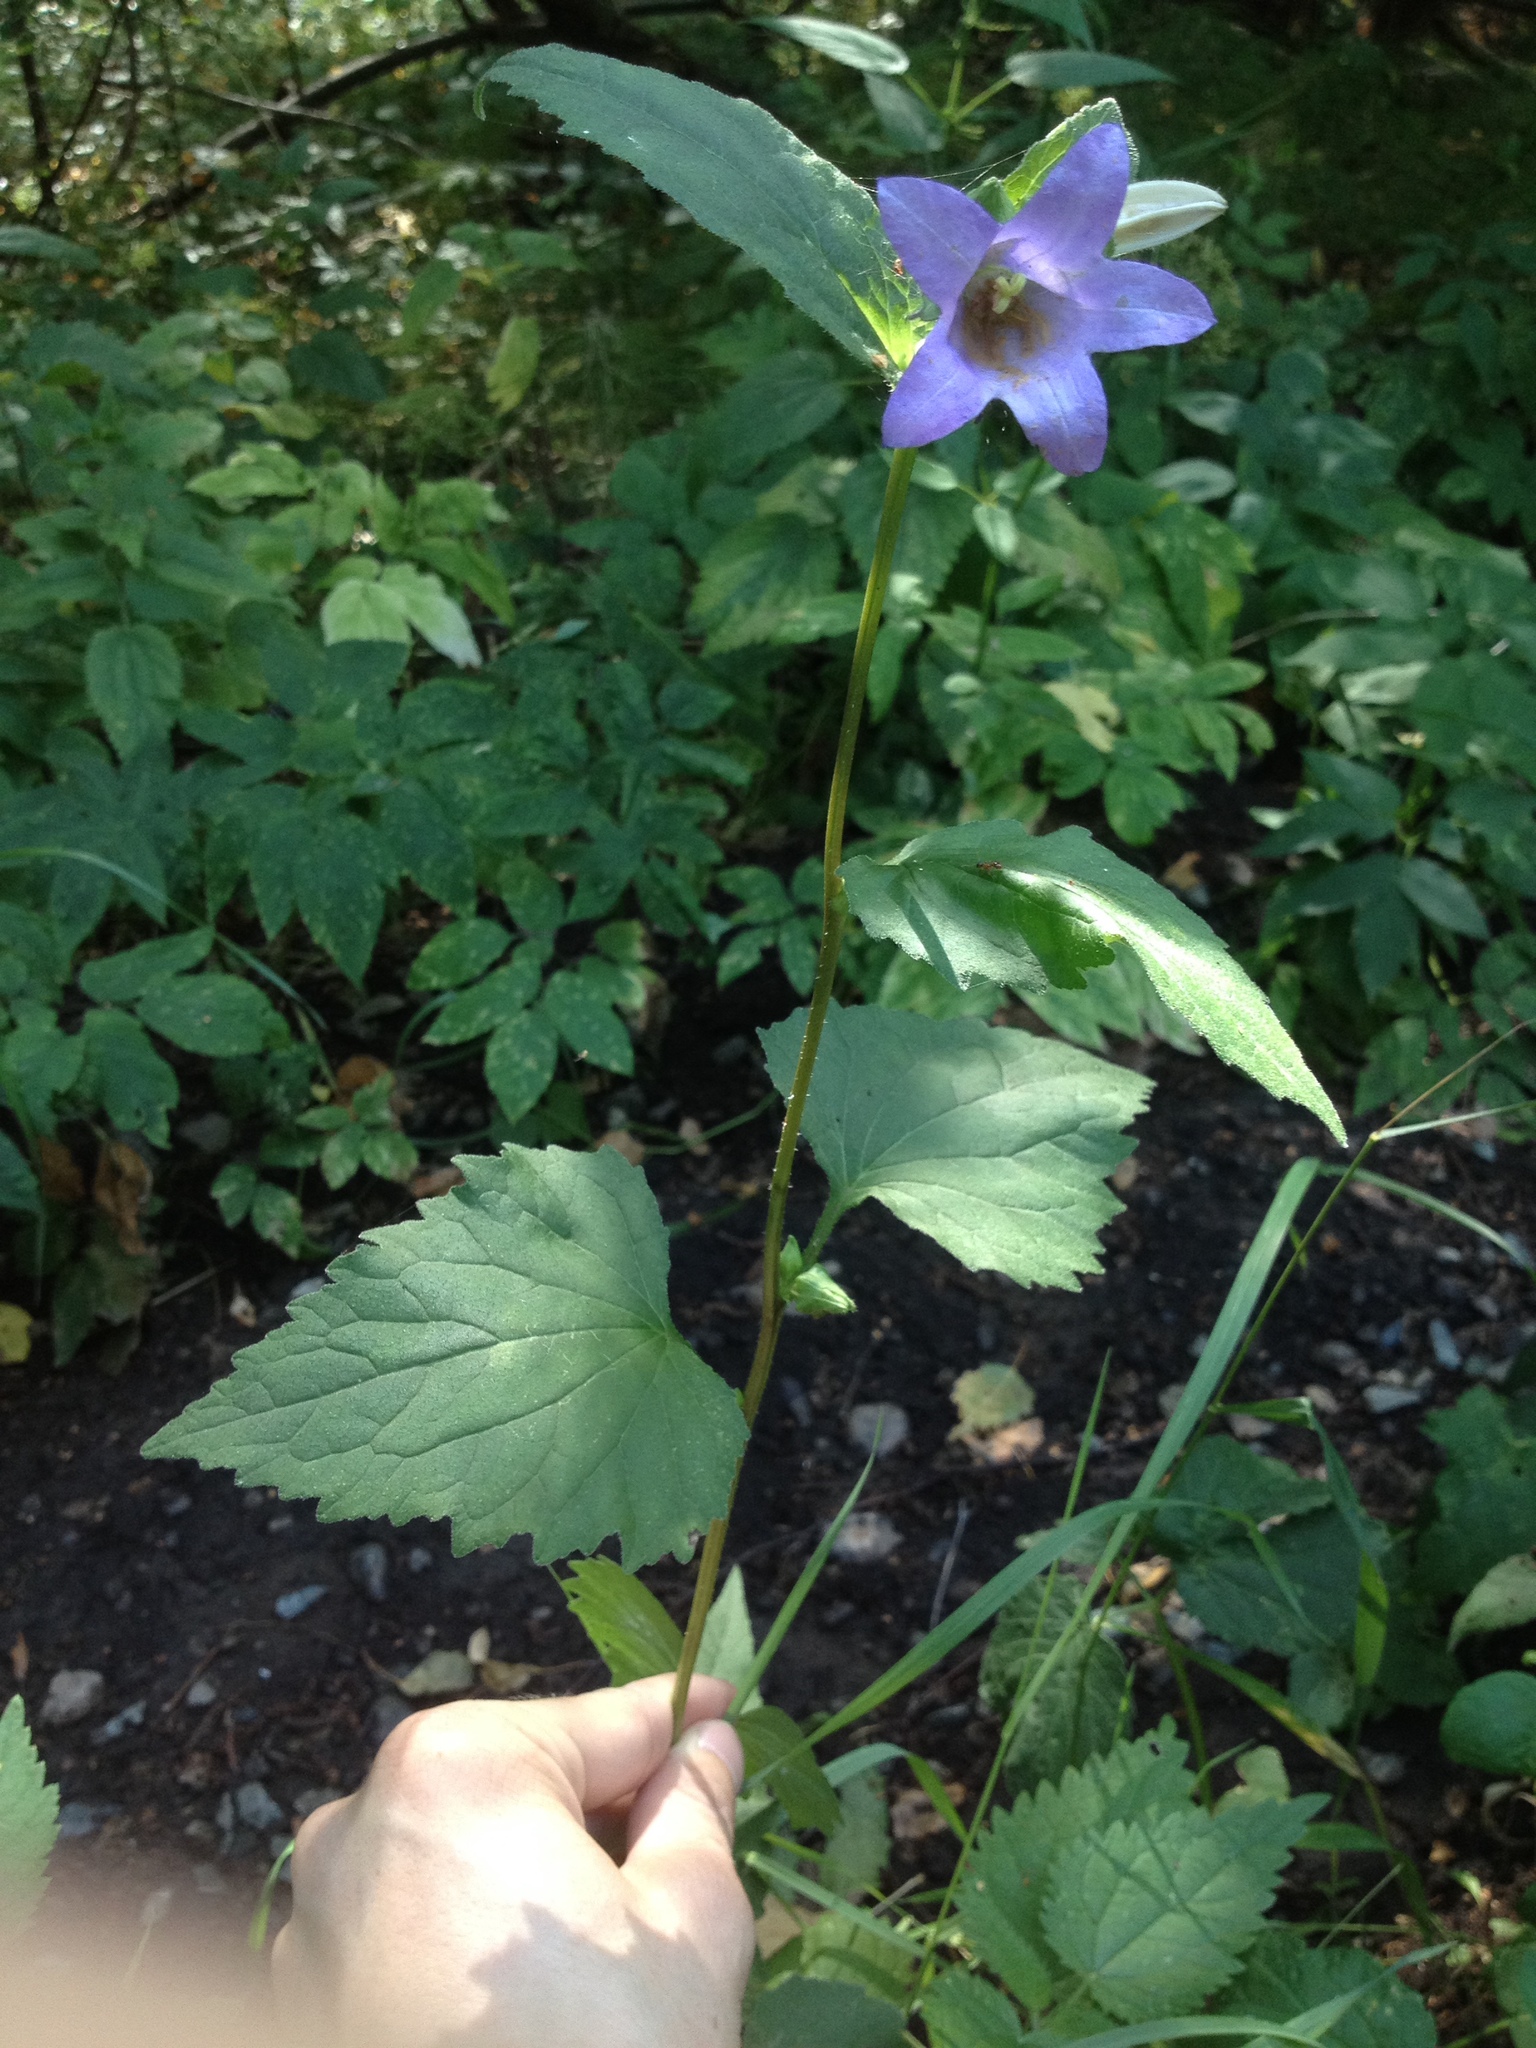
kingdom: Plantae
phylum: Tracheophyta
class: Magnoliopsida
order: Asterales
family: Campanulaceae
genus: Campanula
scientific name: Campanula trachelium
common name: Nettle-leaved bellflower
